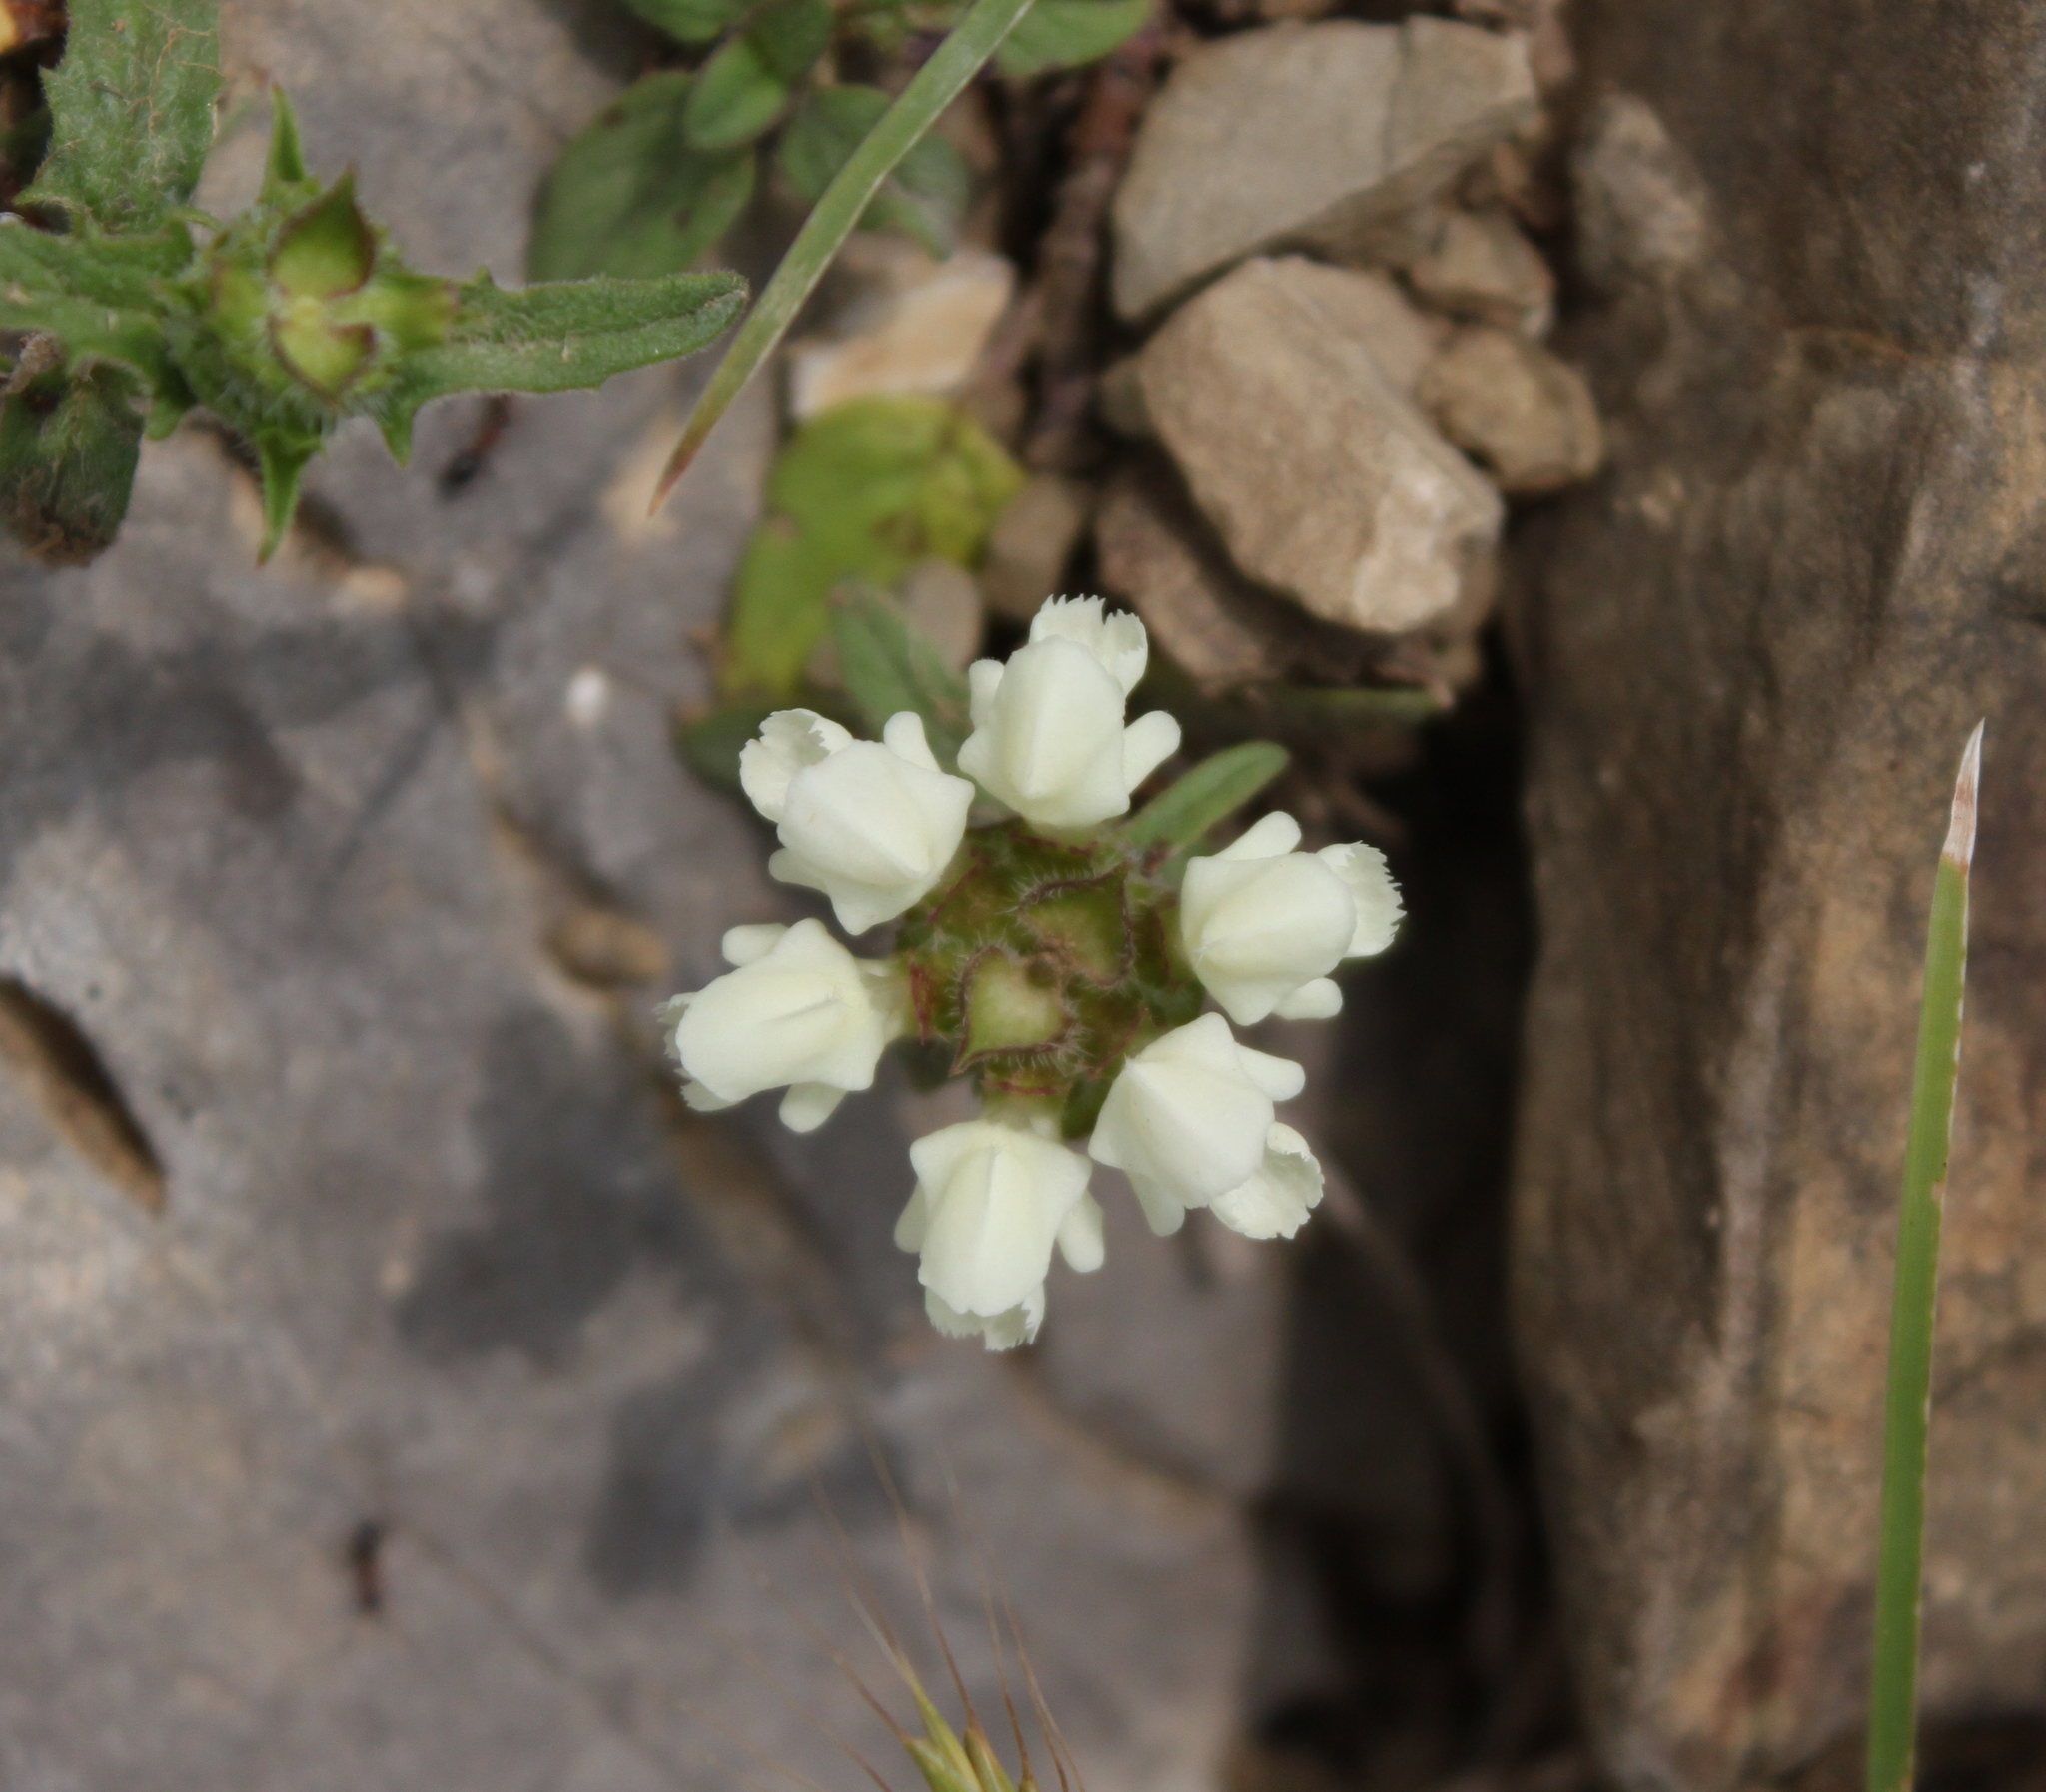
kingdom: Plantae
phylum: Tracheophyta
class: Magnoliopsida
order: Lamiales
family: Lamiaceae
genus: Prunella
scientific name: Prunella laciniata
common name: Cut-leaved selfheal
